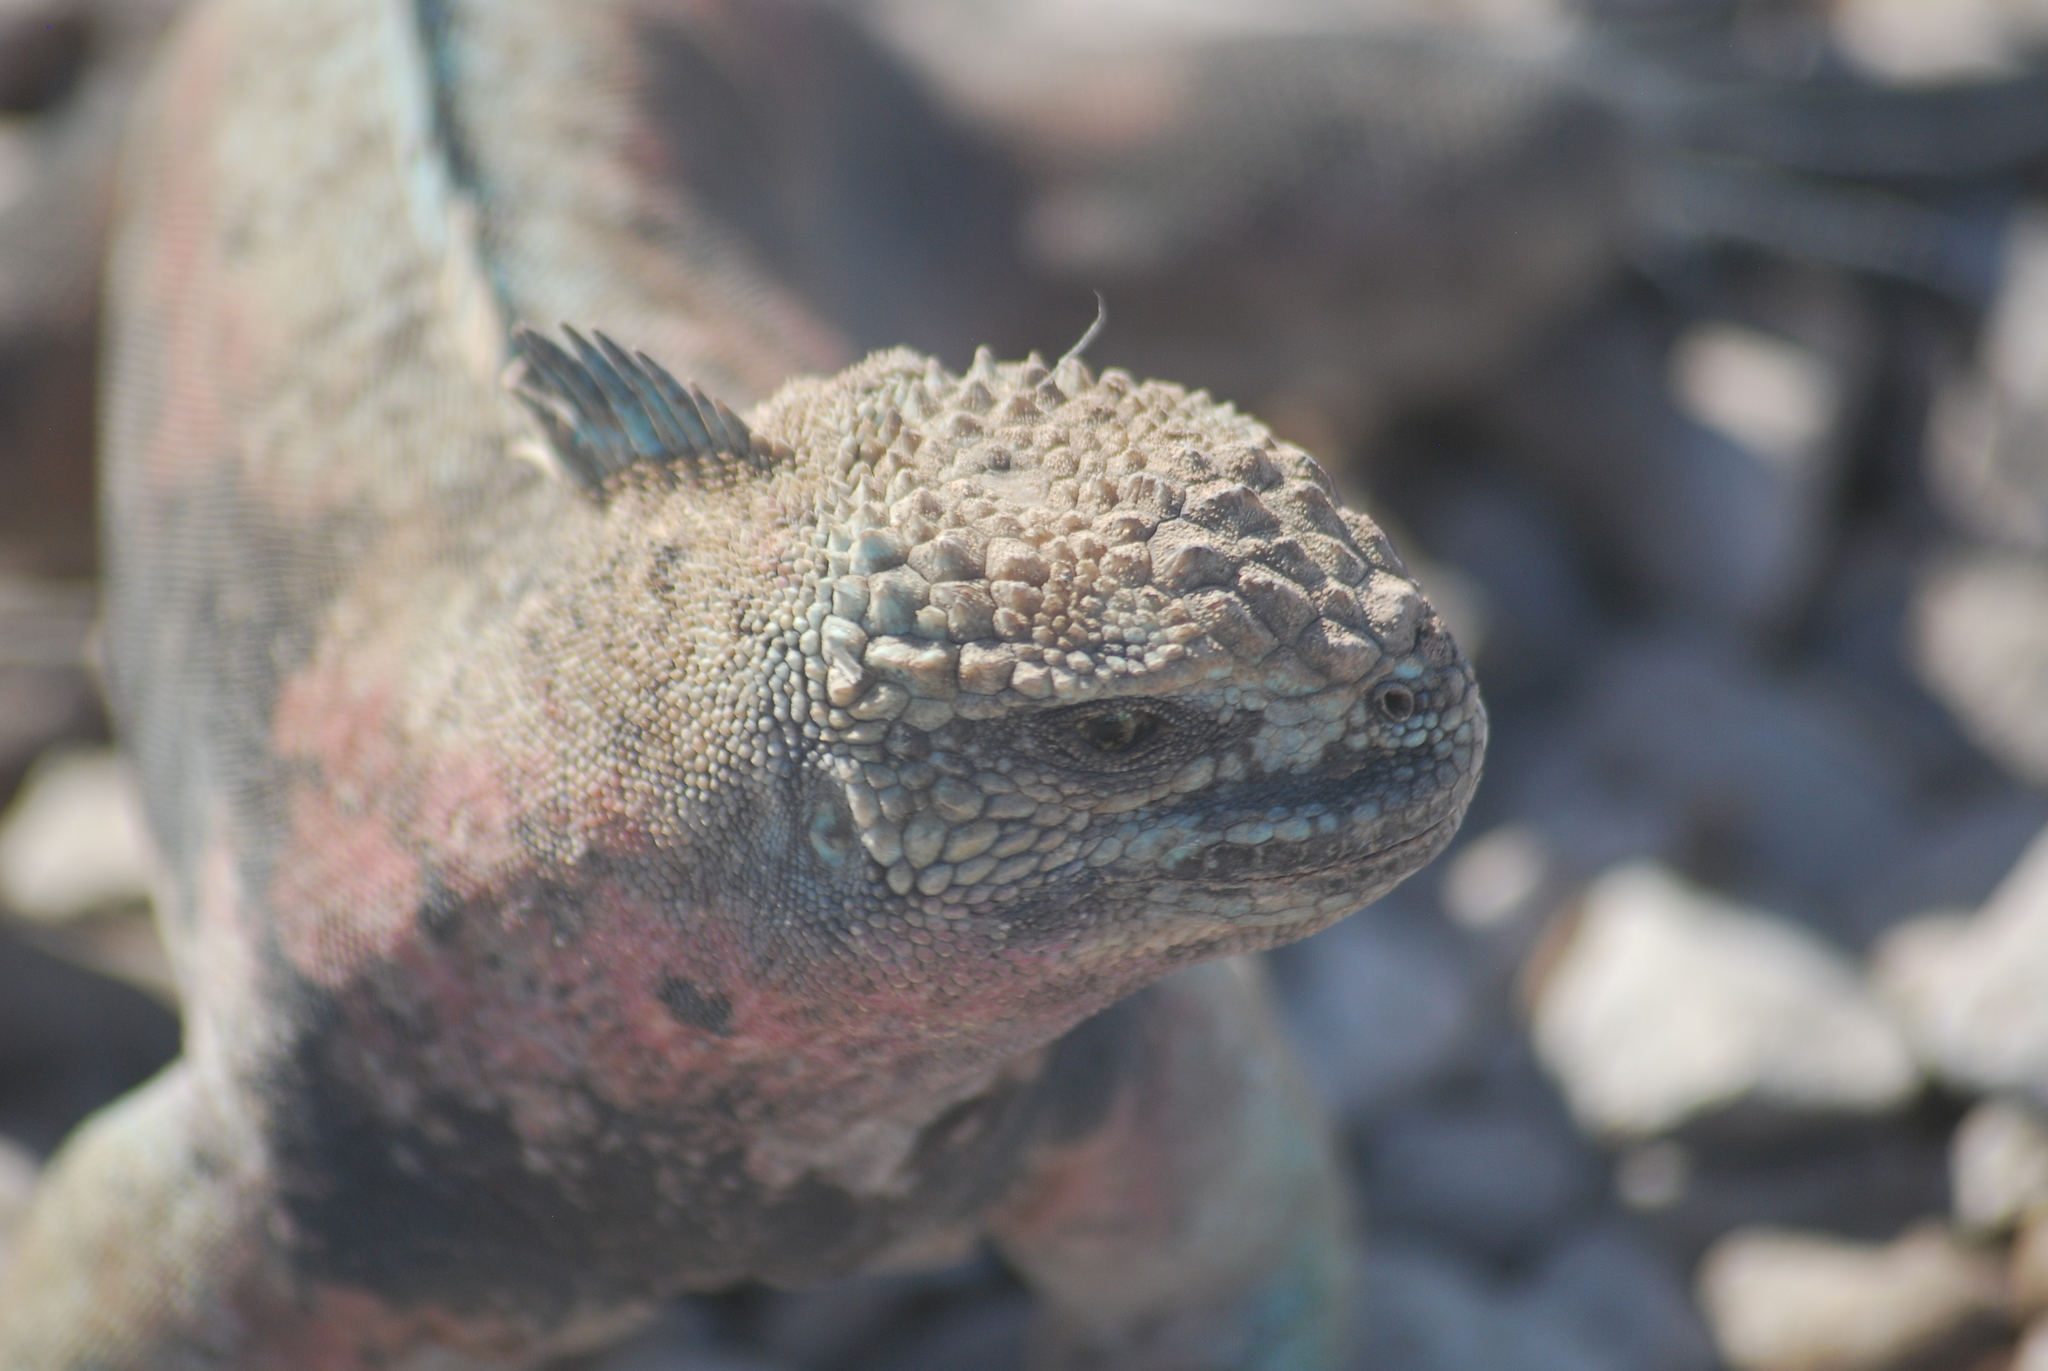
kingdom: Animalia
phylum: Chordata
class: Squamata
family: Iguanidae
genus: Amblyrhynchus
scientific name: Amblyrhynchus cristatus
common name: Marine iguana
